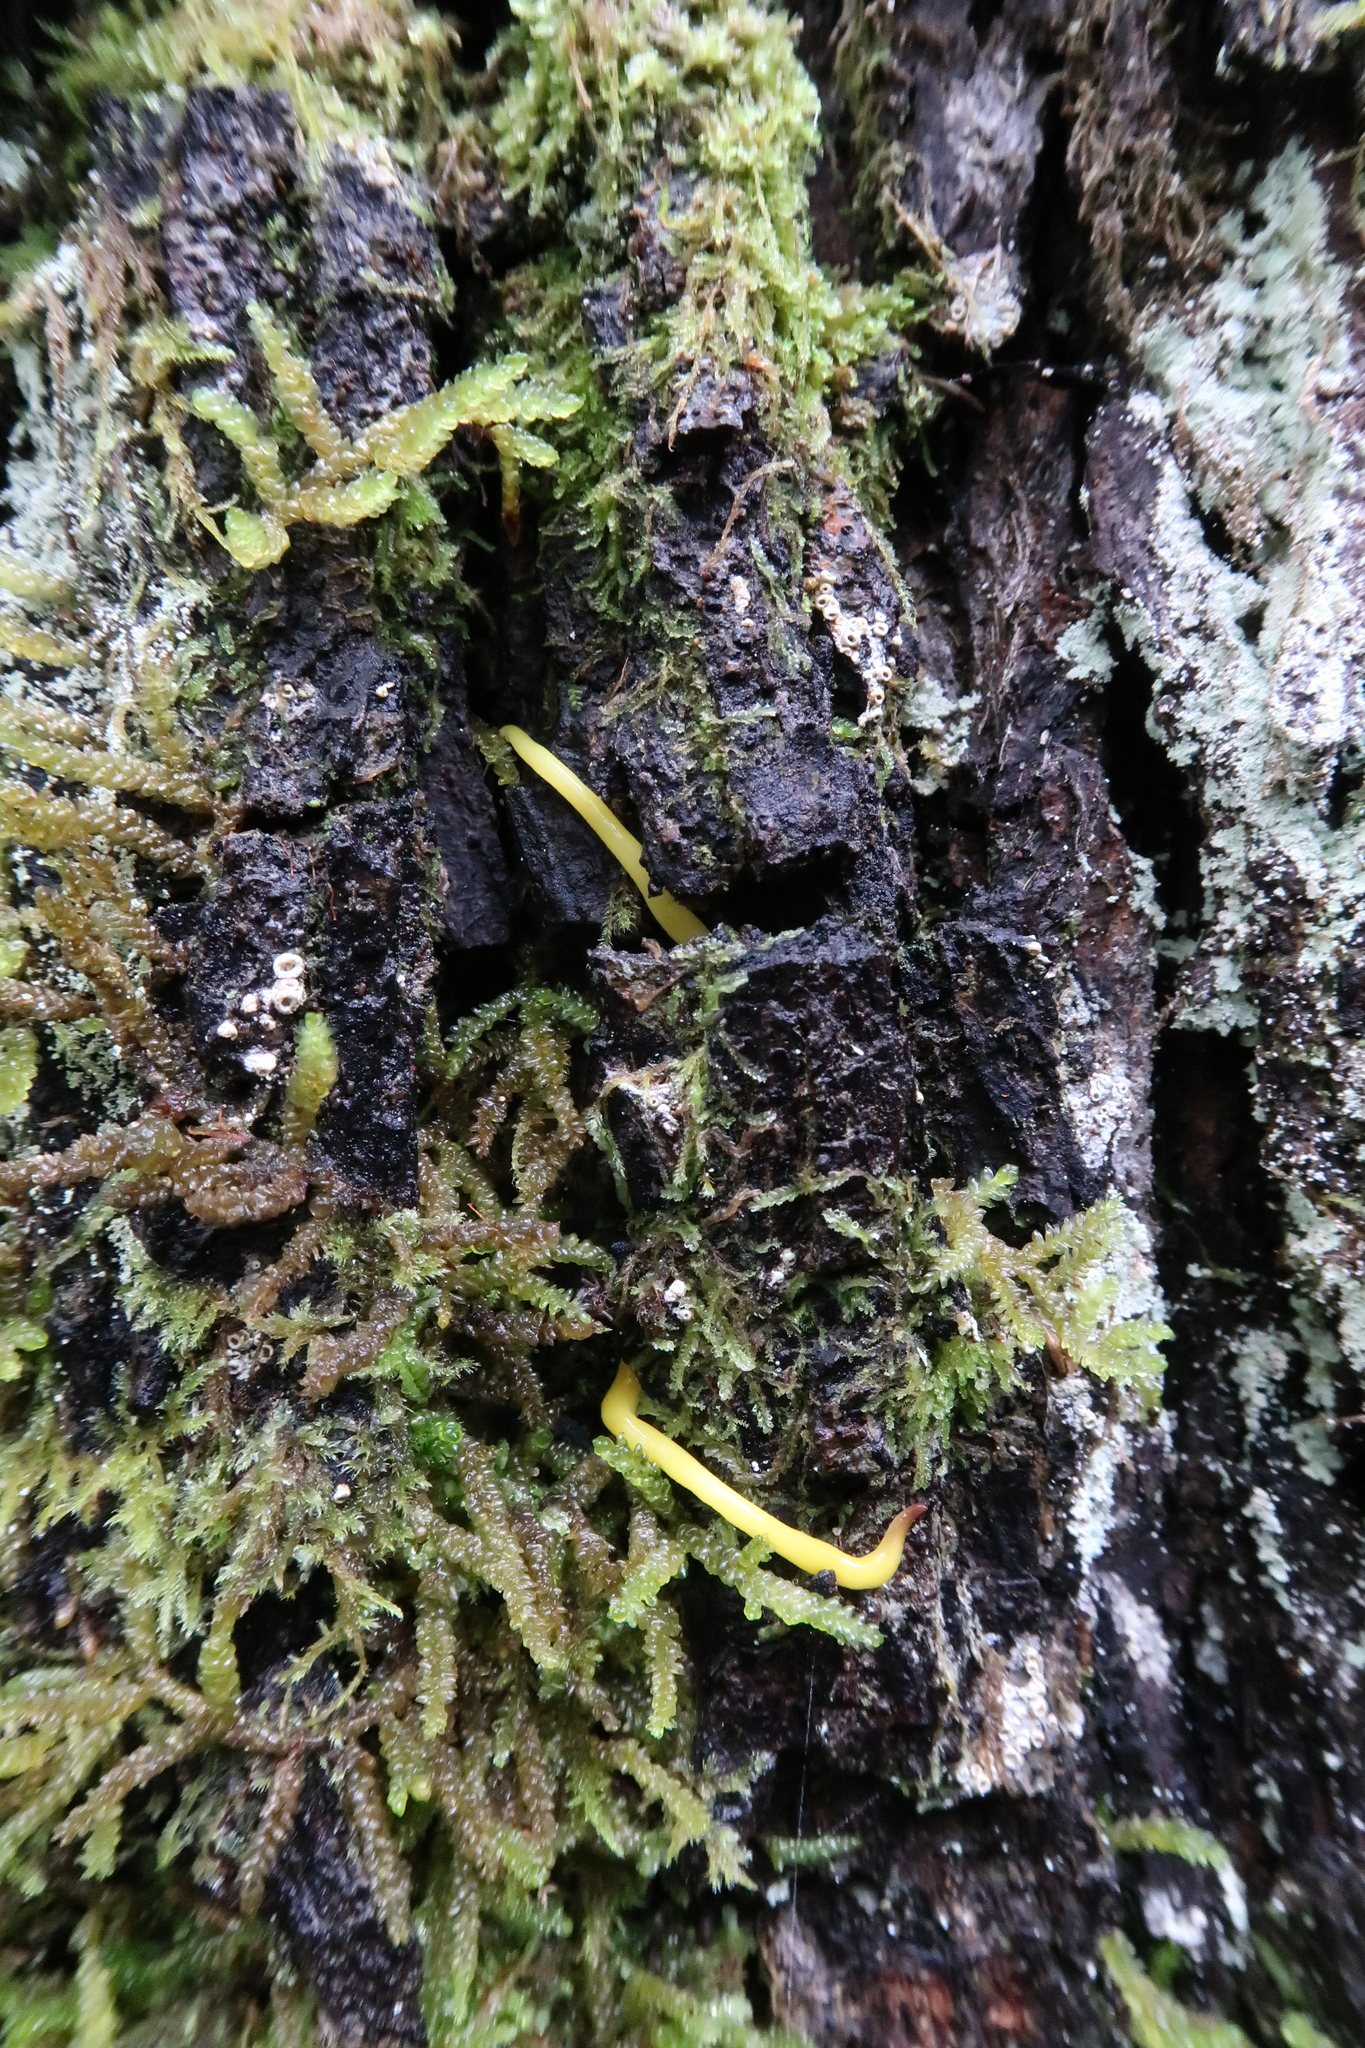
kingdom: Animalia
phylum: Platyhelminthes
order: Tricladida
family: Geoplanidae
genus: Fletchamia
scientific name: Fletchamia sugdeni
